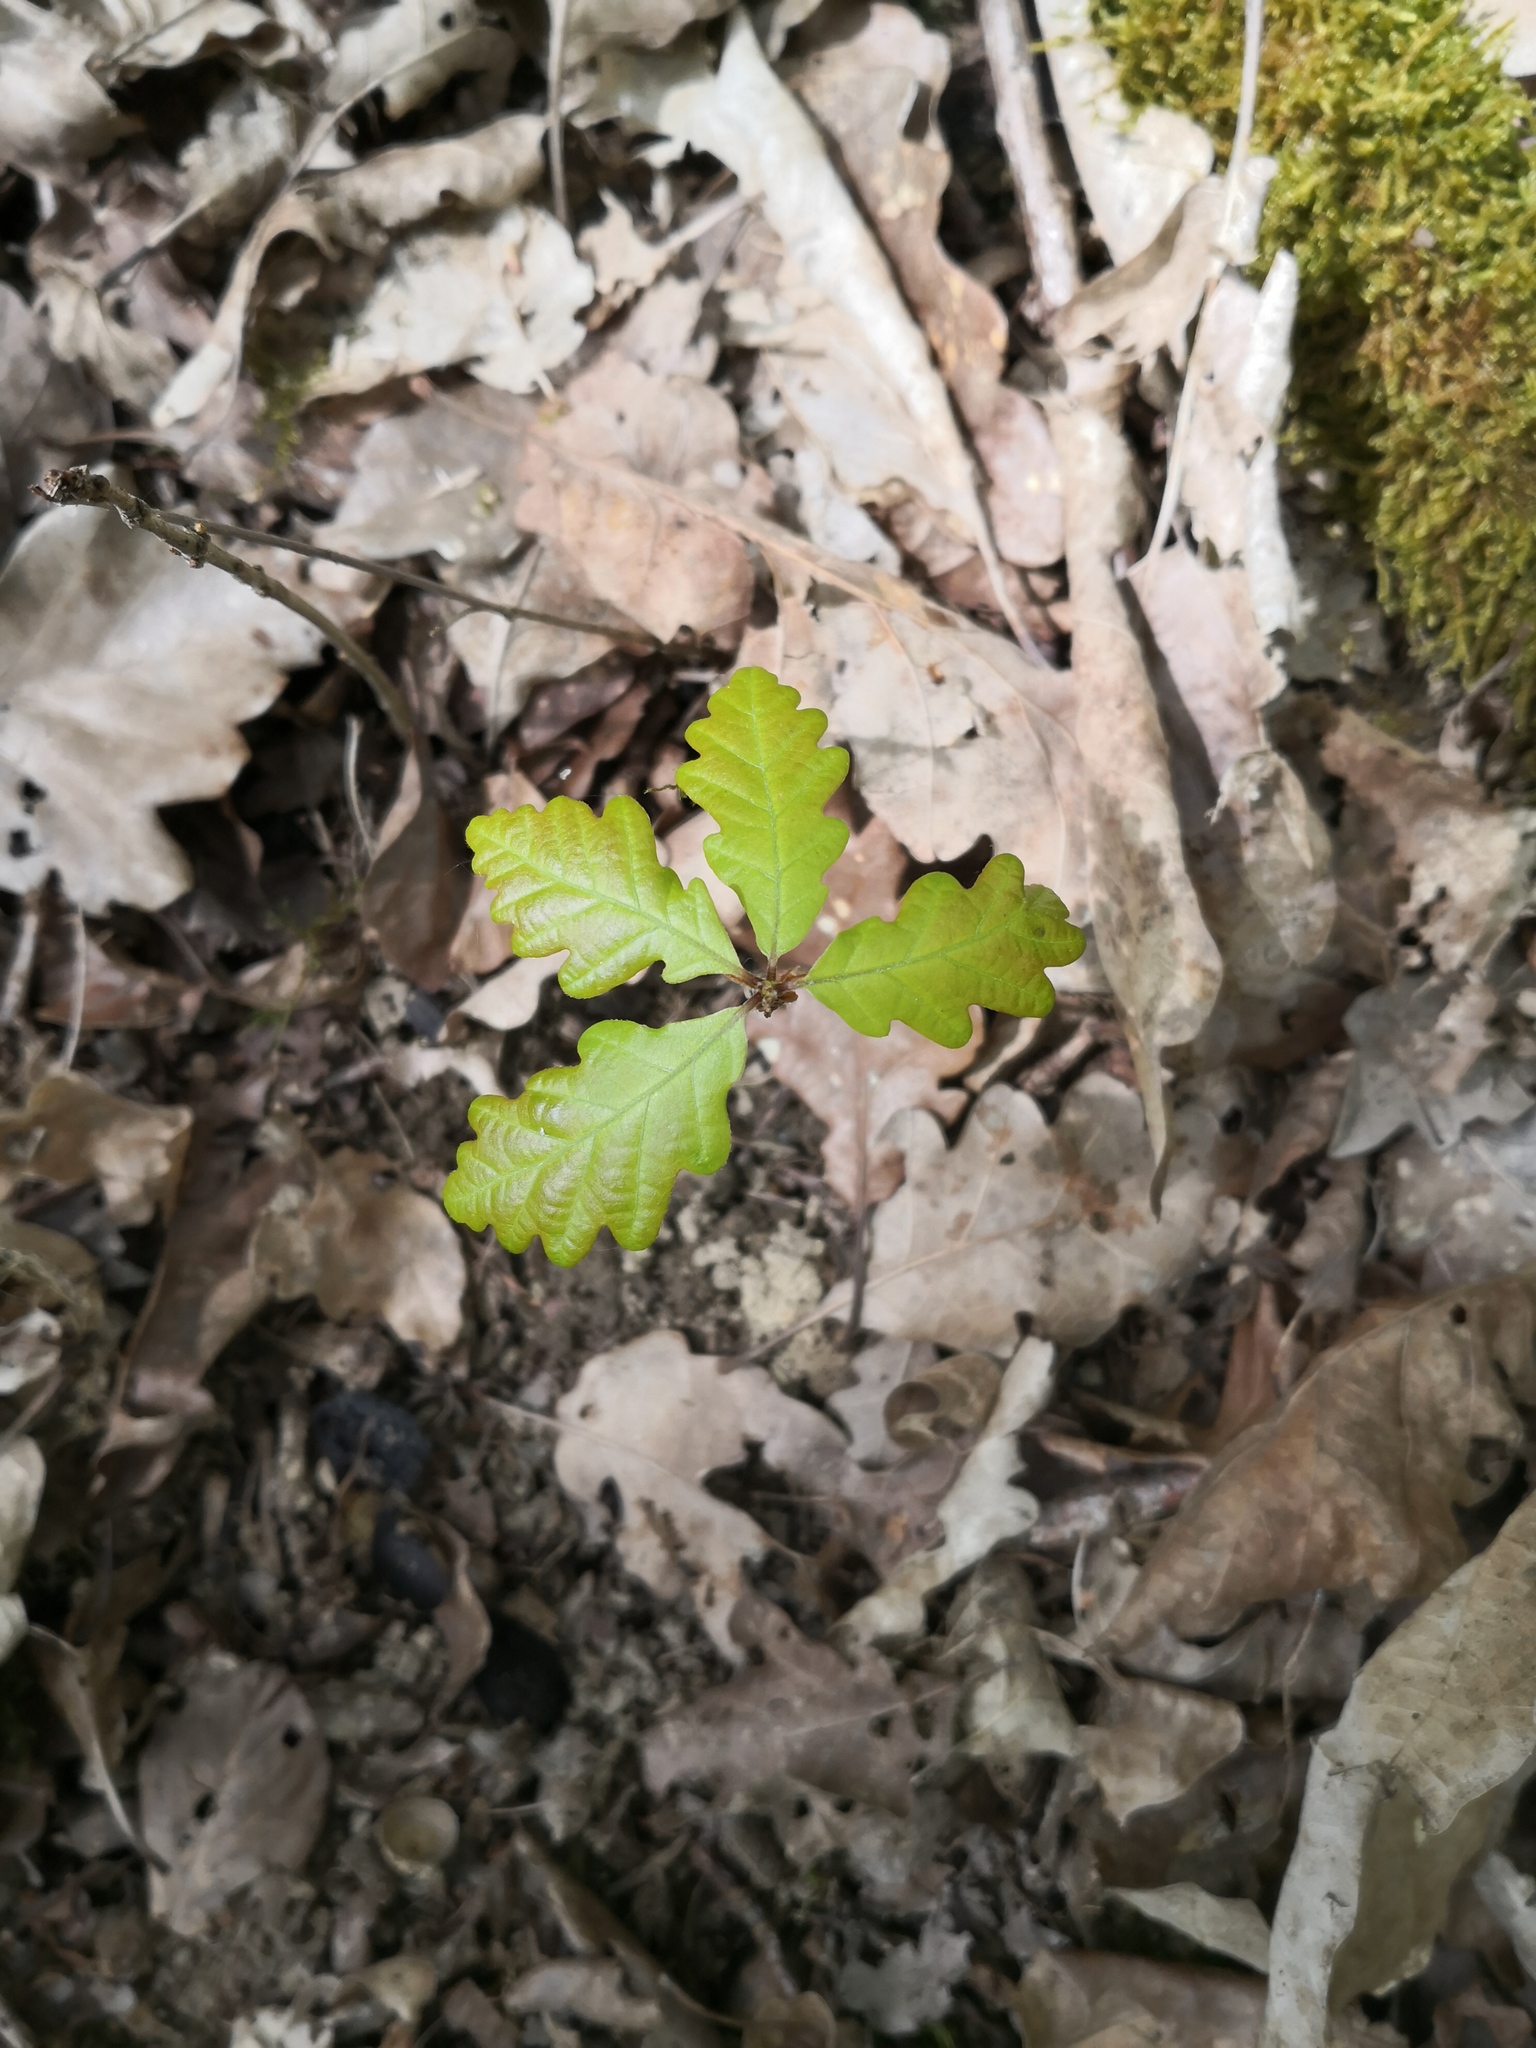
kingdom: Plantae
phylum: Tracheophyta
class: Magnoliopsida
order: Fagales
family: Fagaceae
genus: Quercus
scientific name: Quercus petraea
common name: Sessile oak
